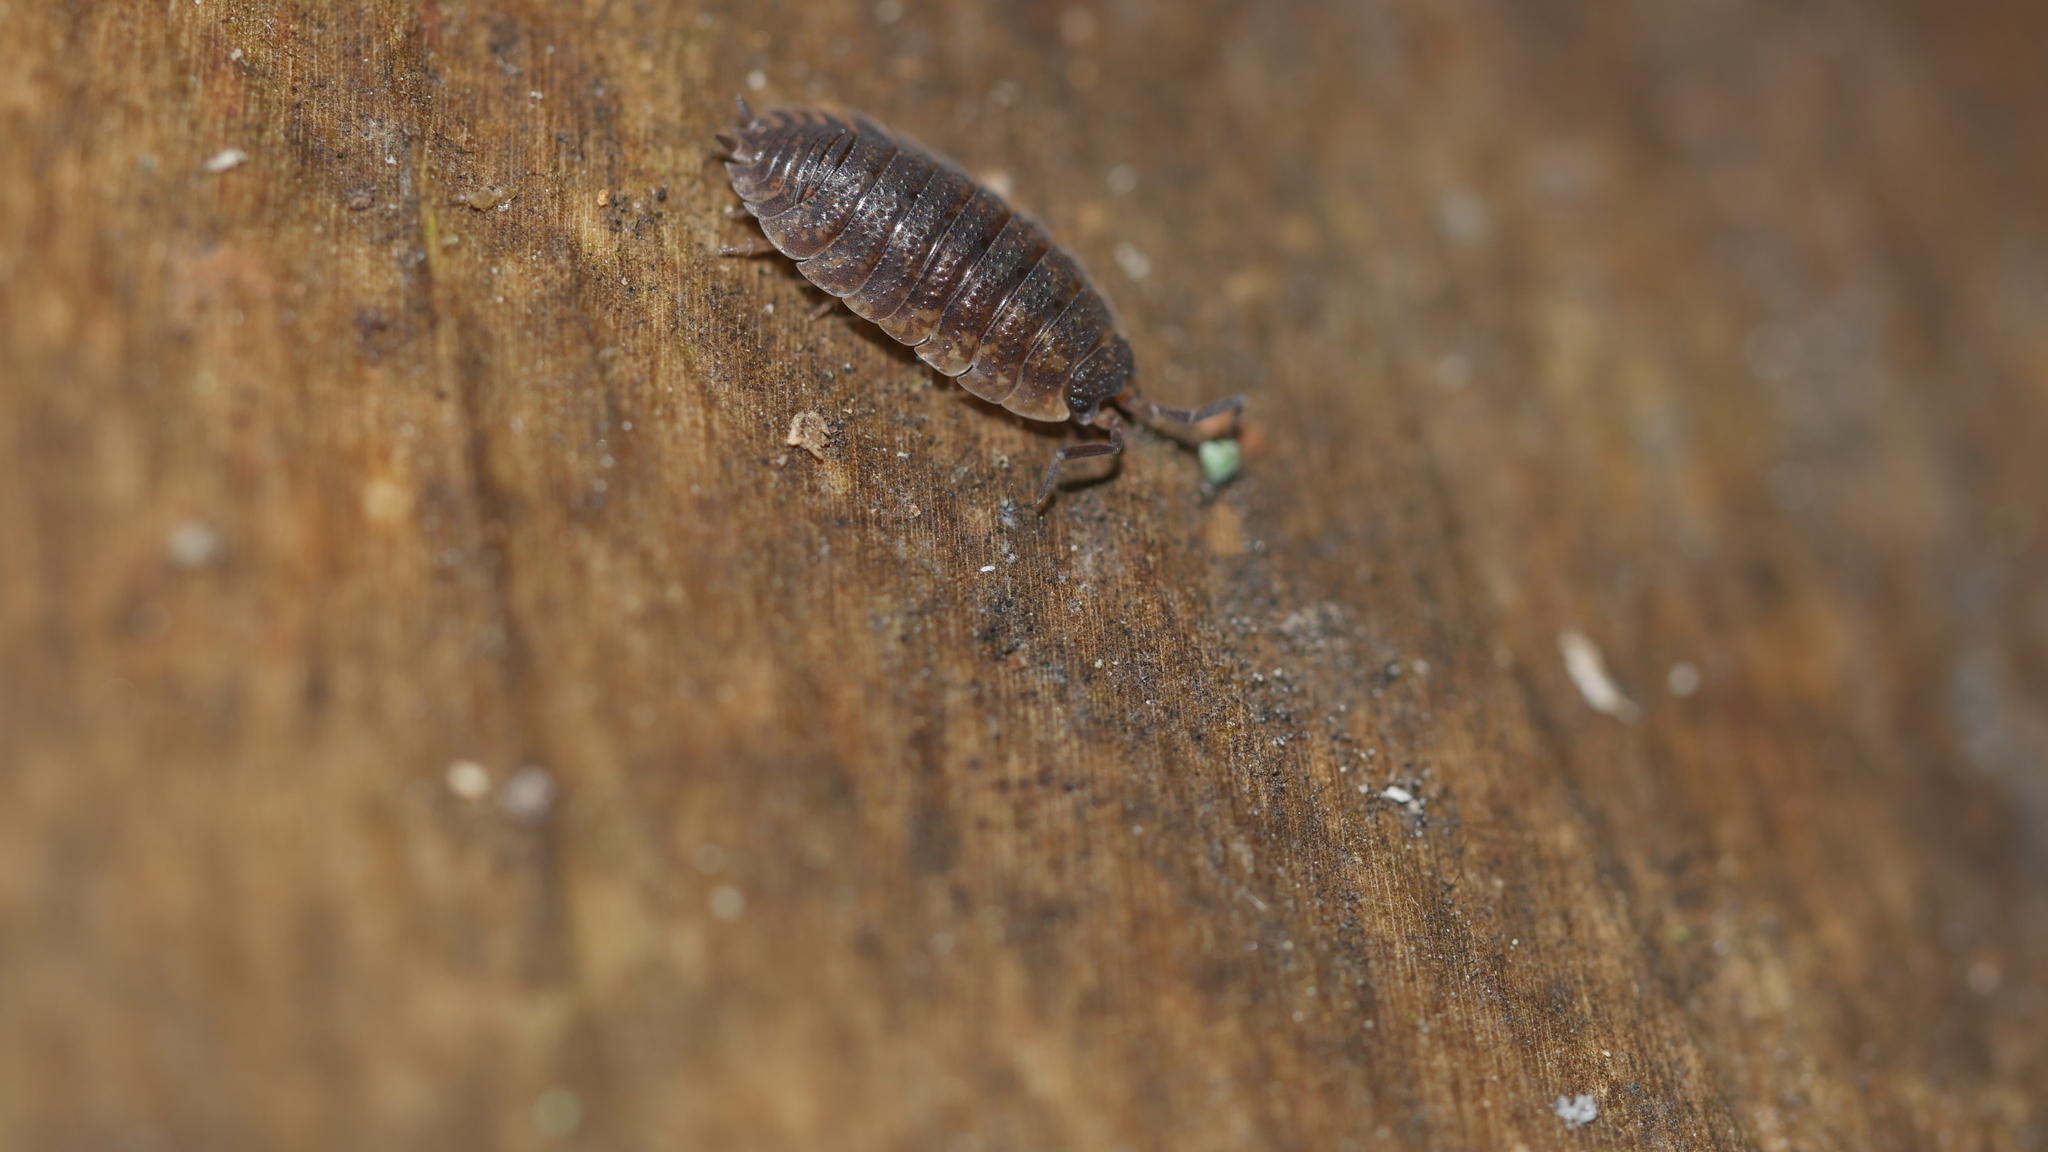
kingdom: Animalia
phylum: Arthropoda
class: Malacostraca
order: Isopoda
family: Porcellionidae
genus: Porcellio
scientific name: Porcellio scaber
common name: Common rough woodlouse
